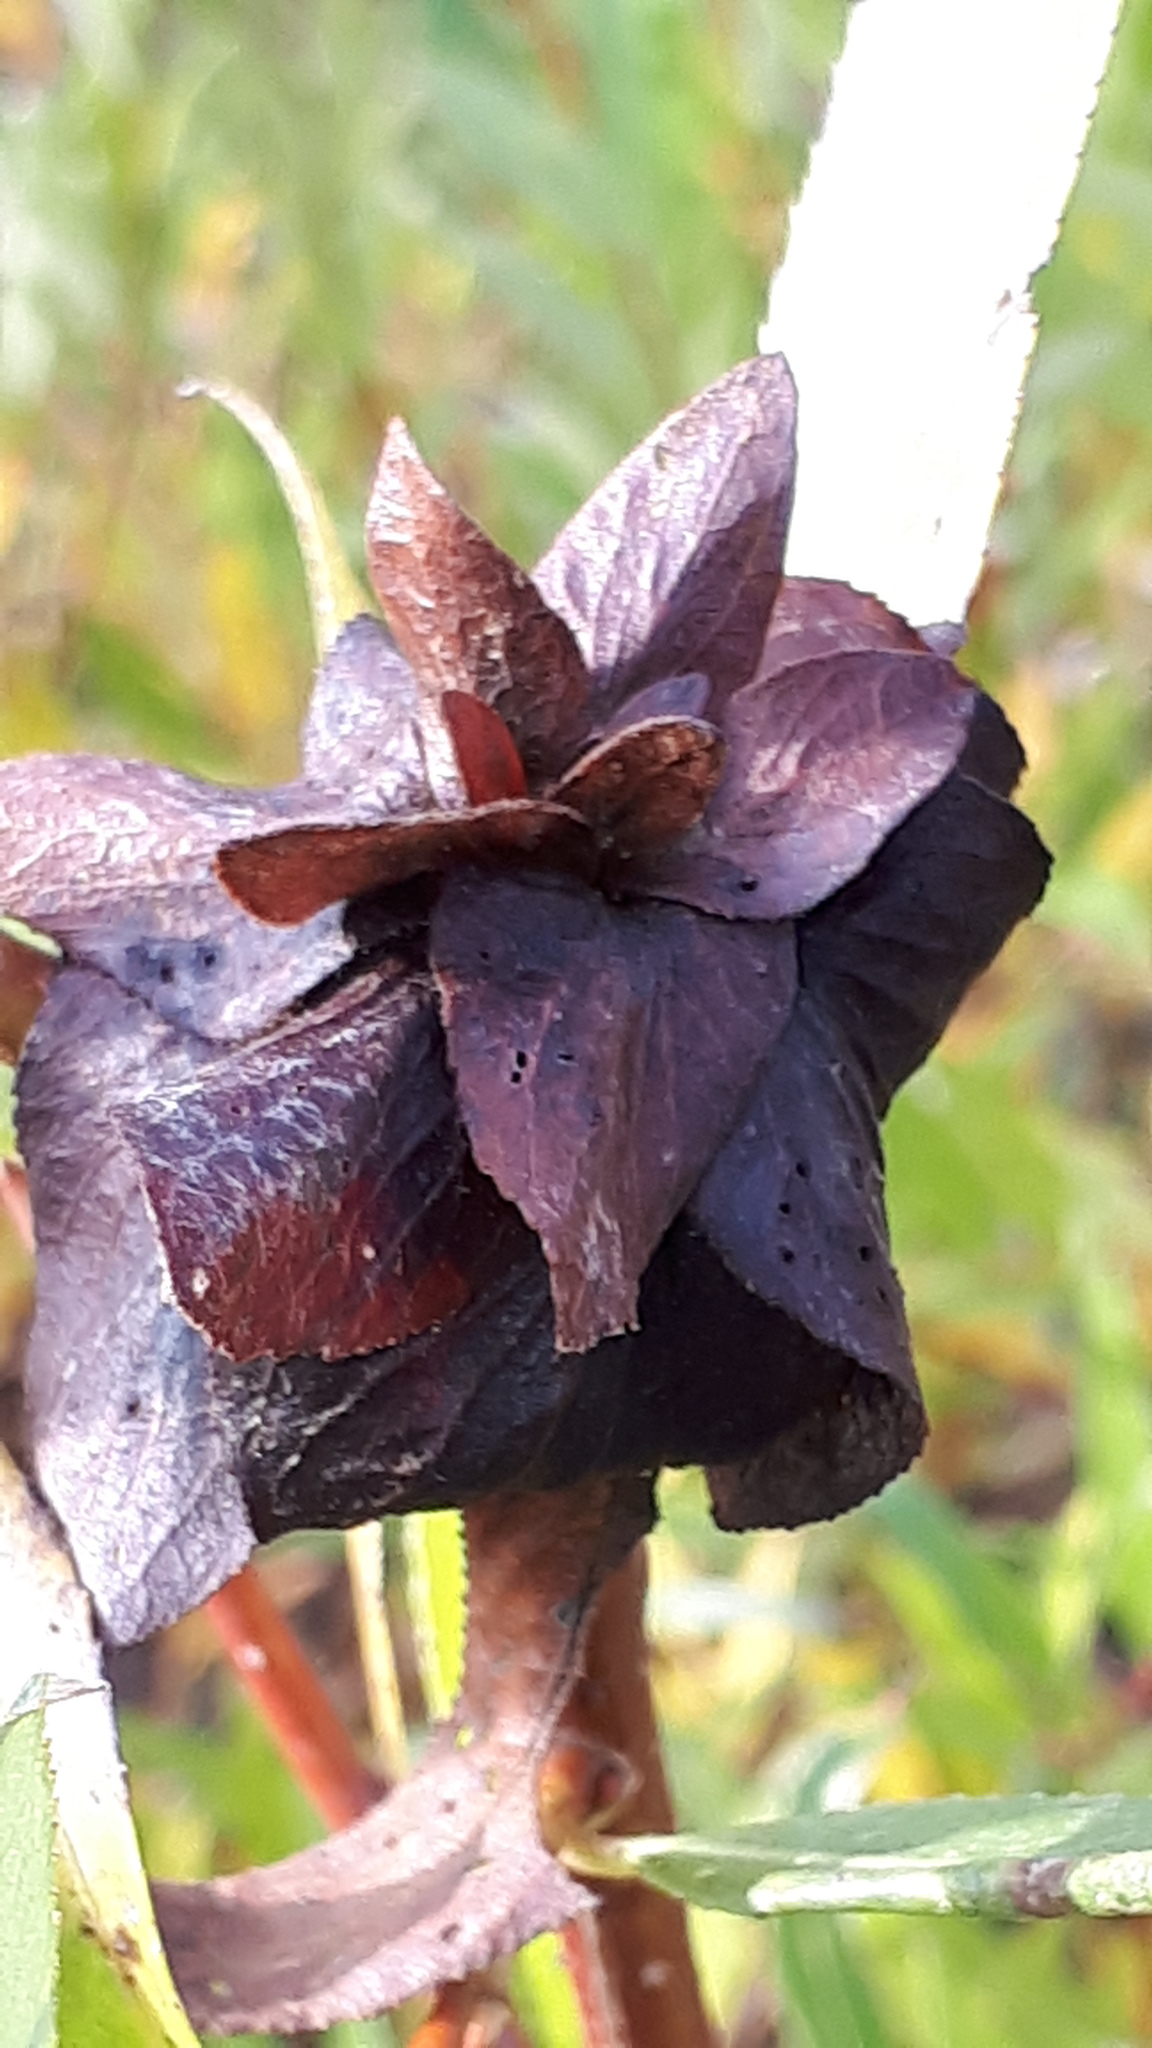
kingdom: Animalia
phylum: Arthropoda
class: Insecta
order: Diptera
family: Cecidomyiidae
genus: Rabdophaga
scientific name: Rabdophaga rosaria
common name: Willow rose gall midge
